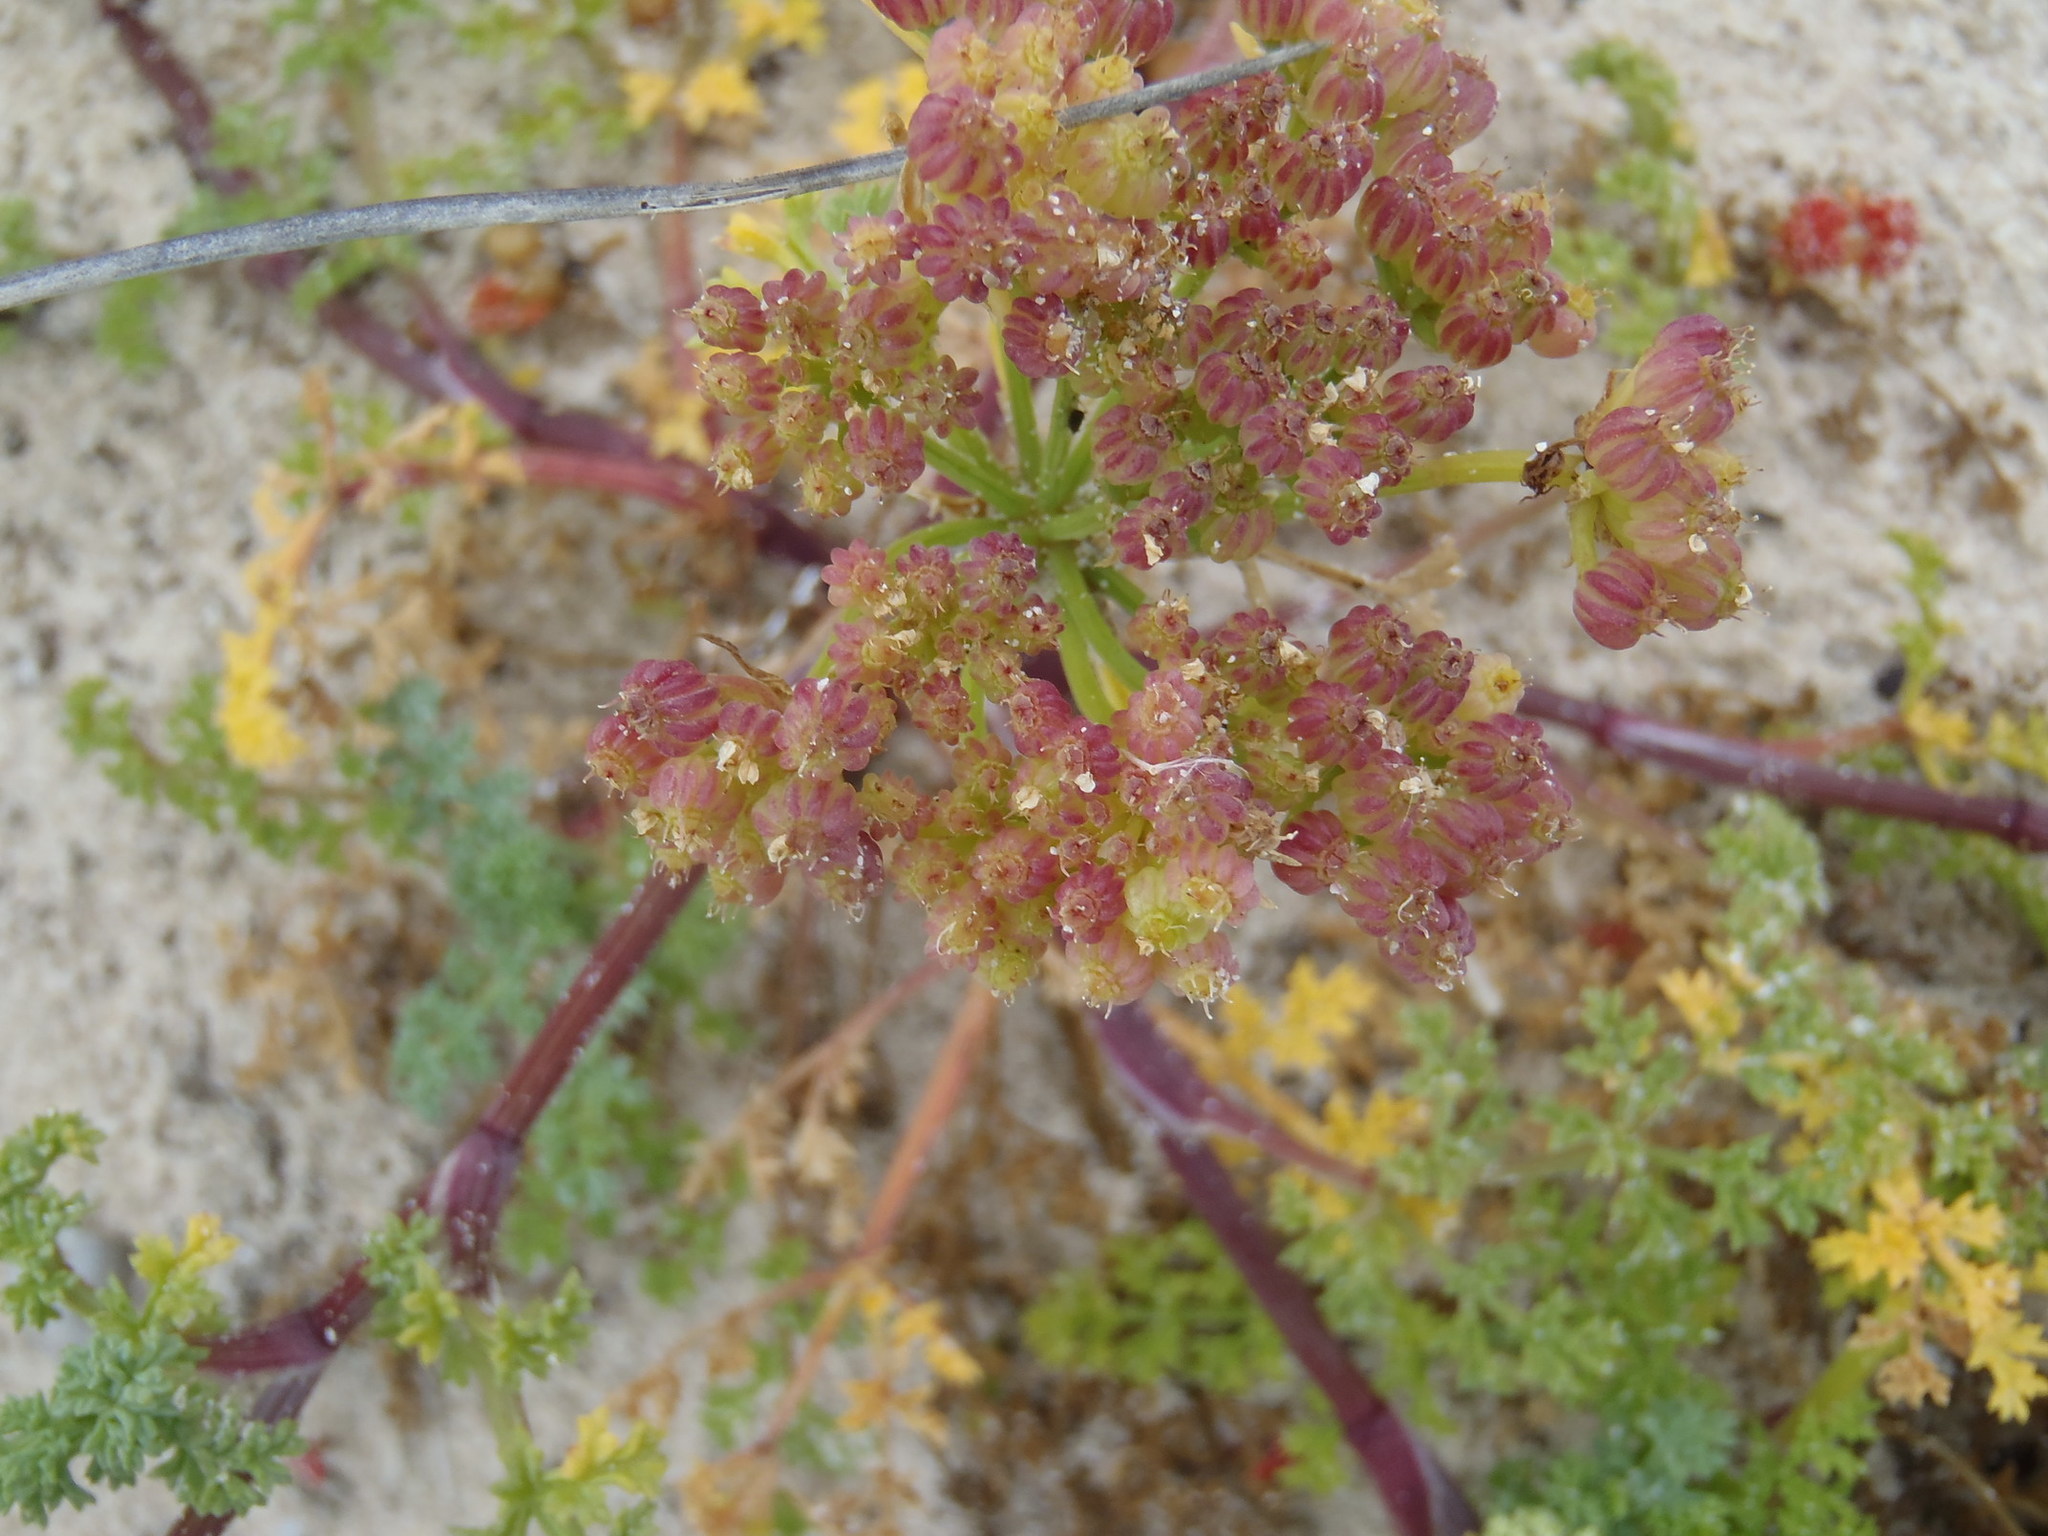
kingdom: Plantae
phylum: Tracheophyta
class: Magnoliopsida
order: Apiales
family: Apiaceae
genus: Dasispermum
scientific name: Dasispermum suffruticosum
